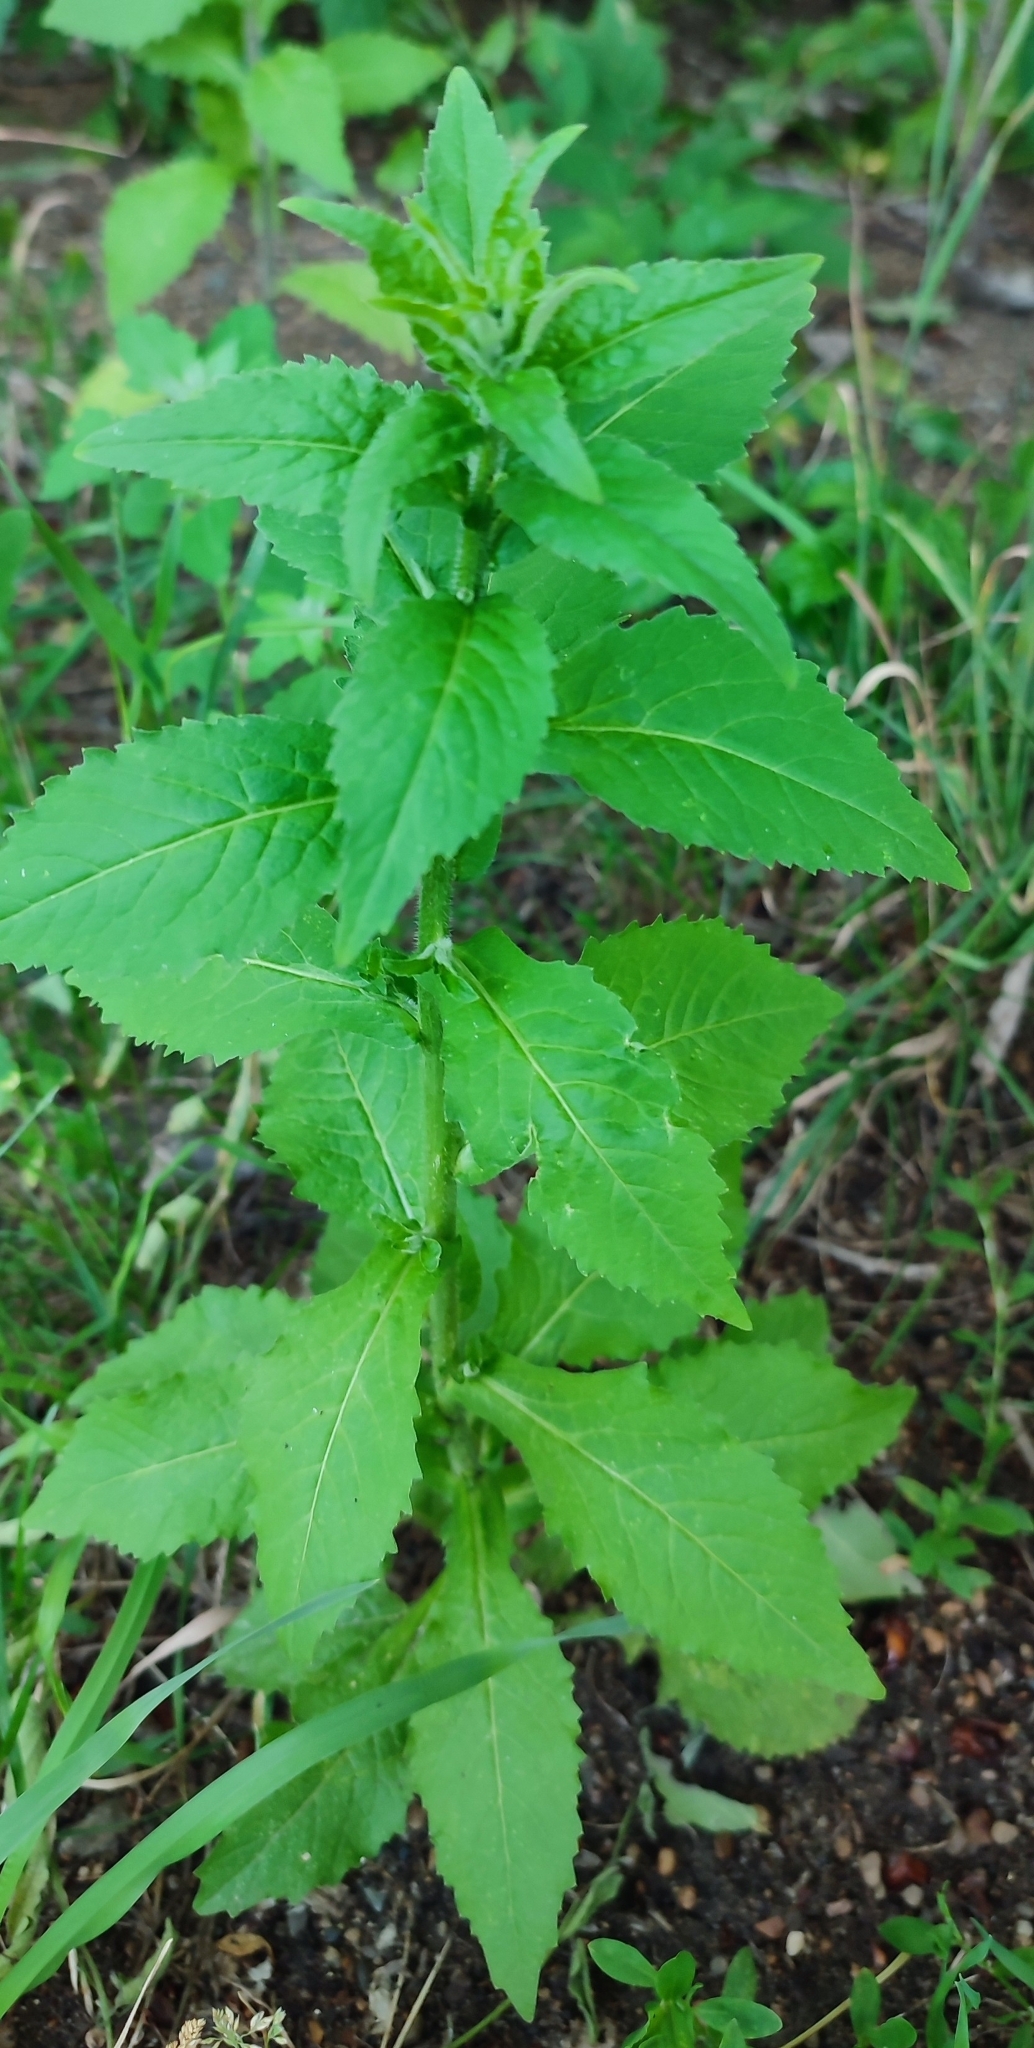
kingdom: Plantae
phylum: Tracheophyta
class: Magnoliopsida
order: Brassicales
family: Brassicaceae
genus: Catolobus
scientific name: Catolobus pendulus
